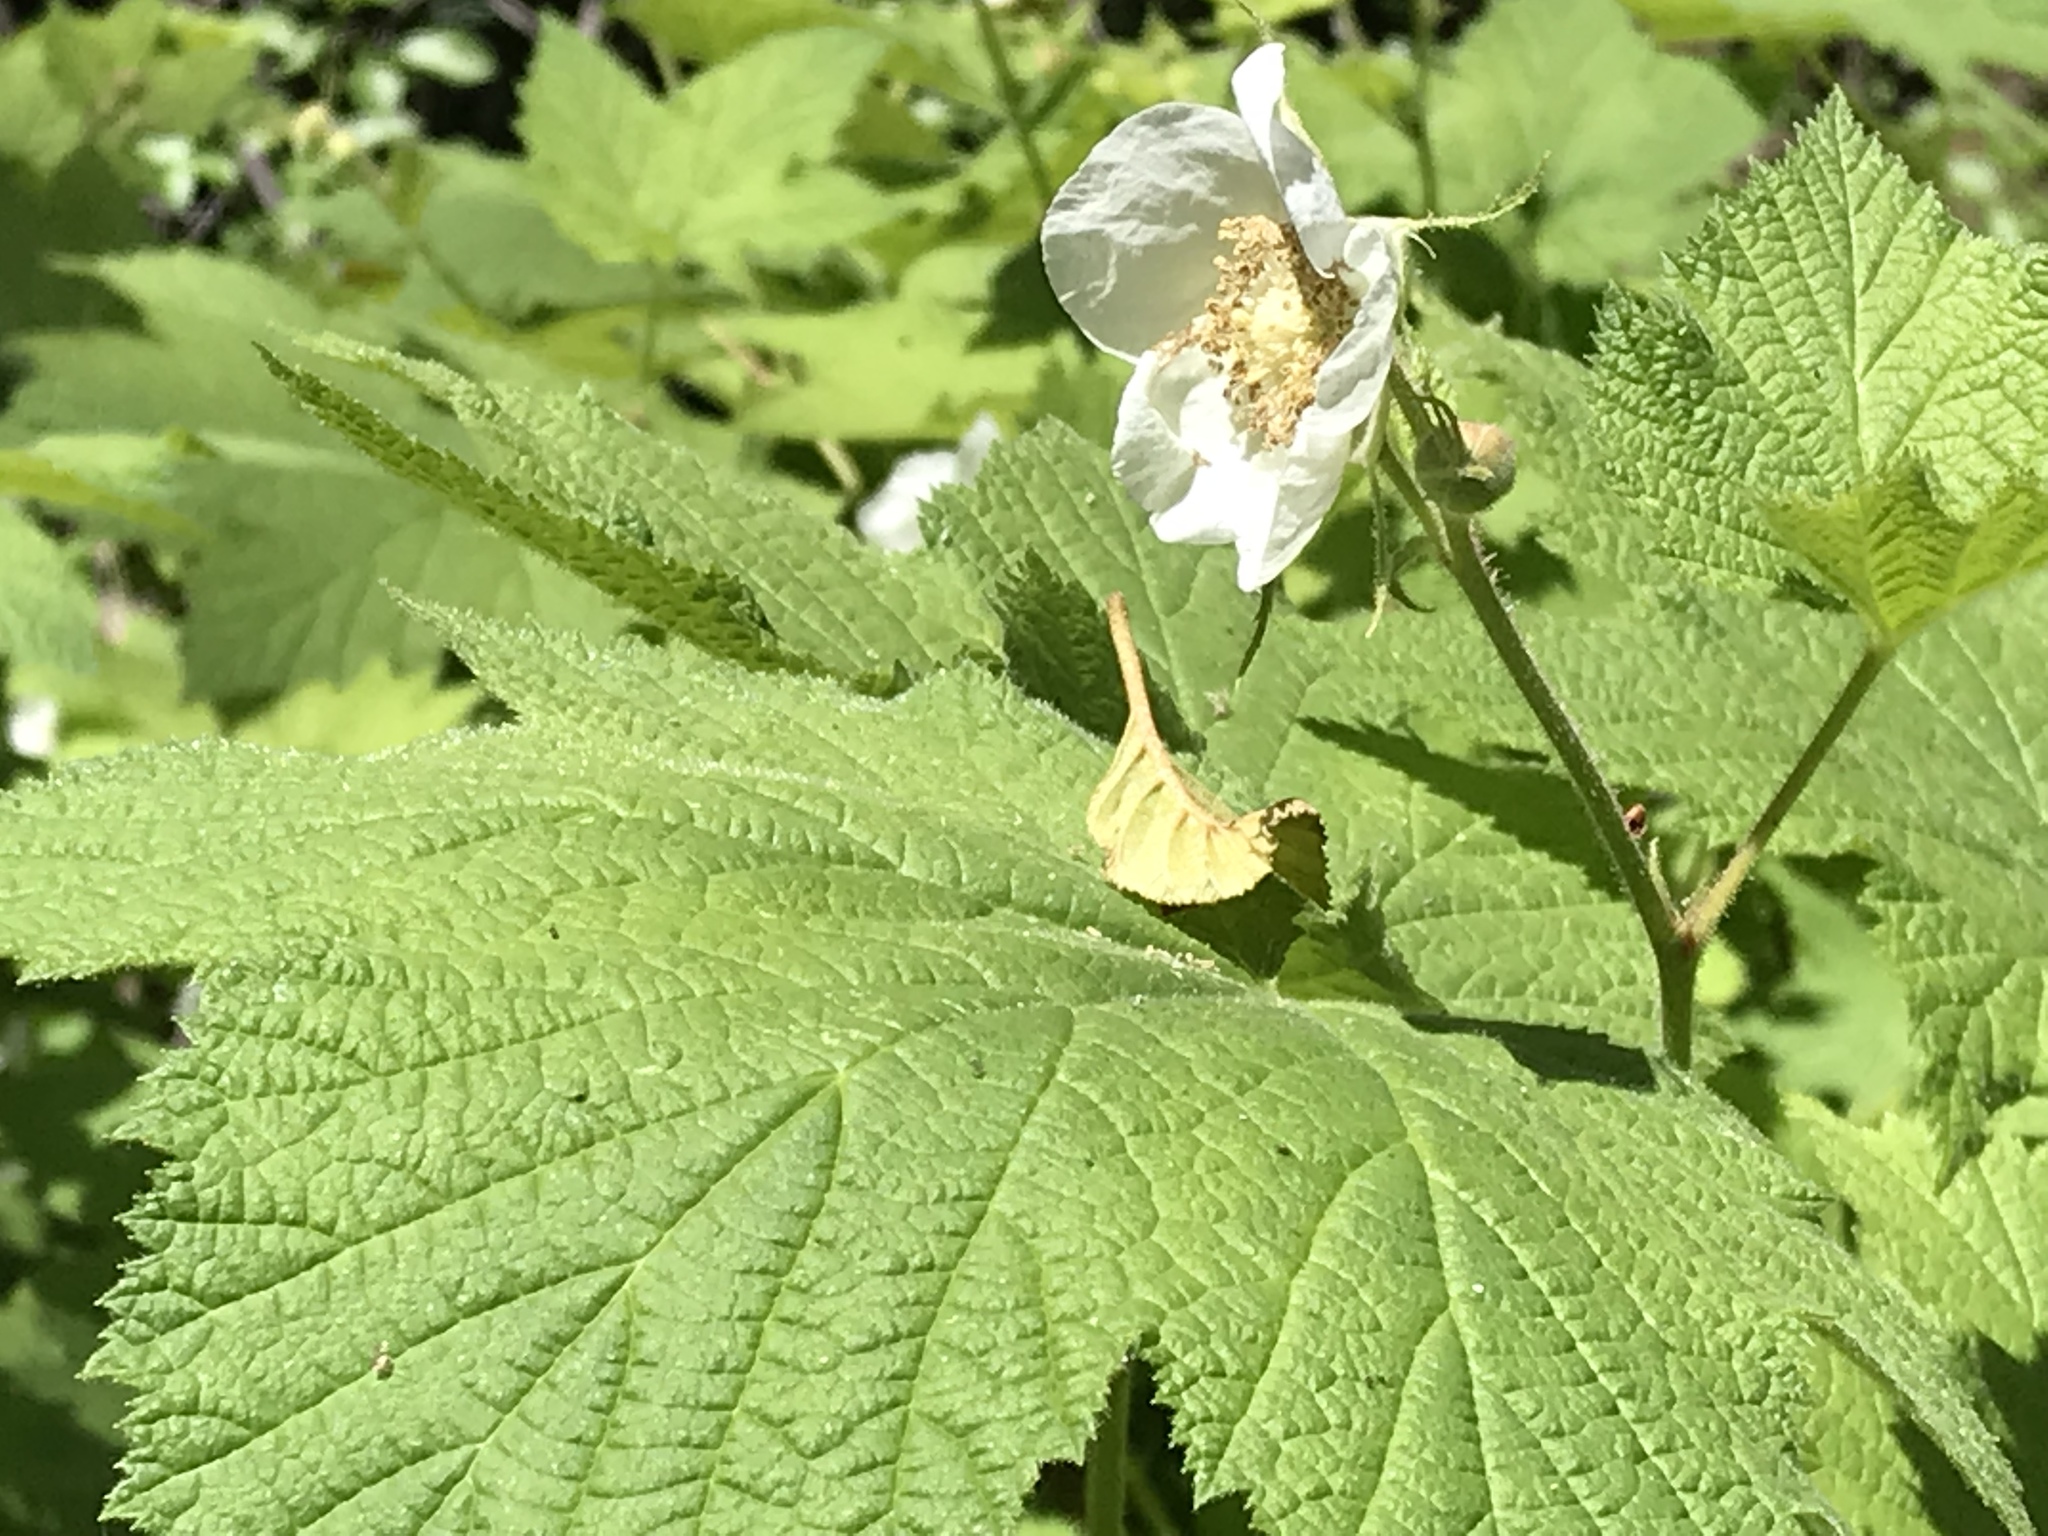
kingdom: Plantae
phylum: Tracheophyta
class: Magnoliopsida
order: Rosales
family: Rosaceae
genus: Rubus
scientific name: Rubus parviflorus
